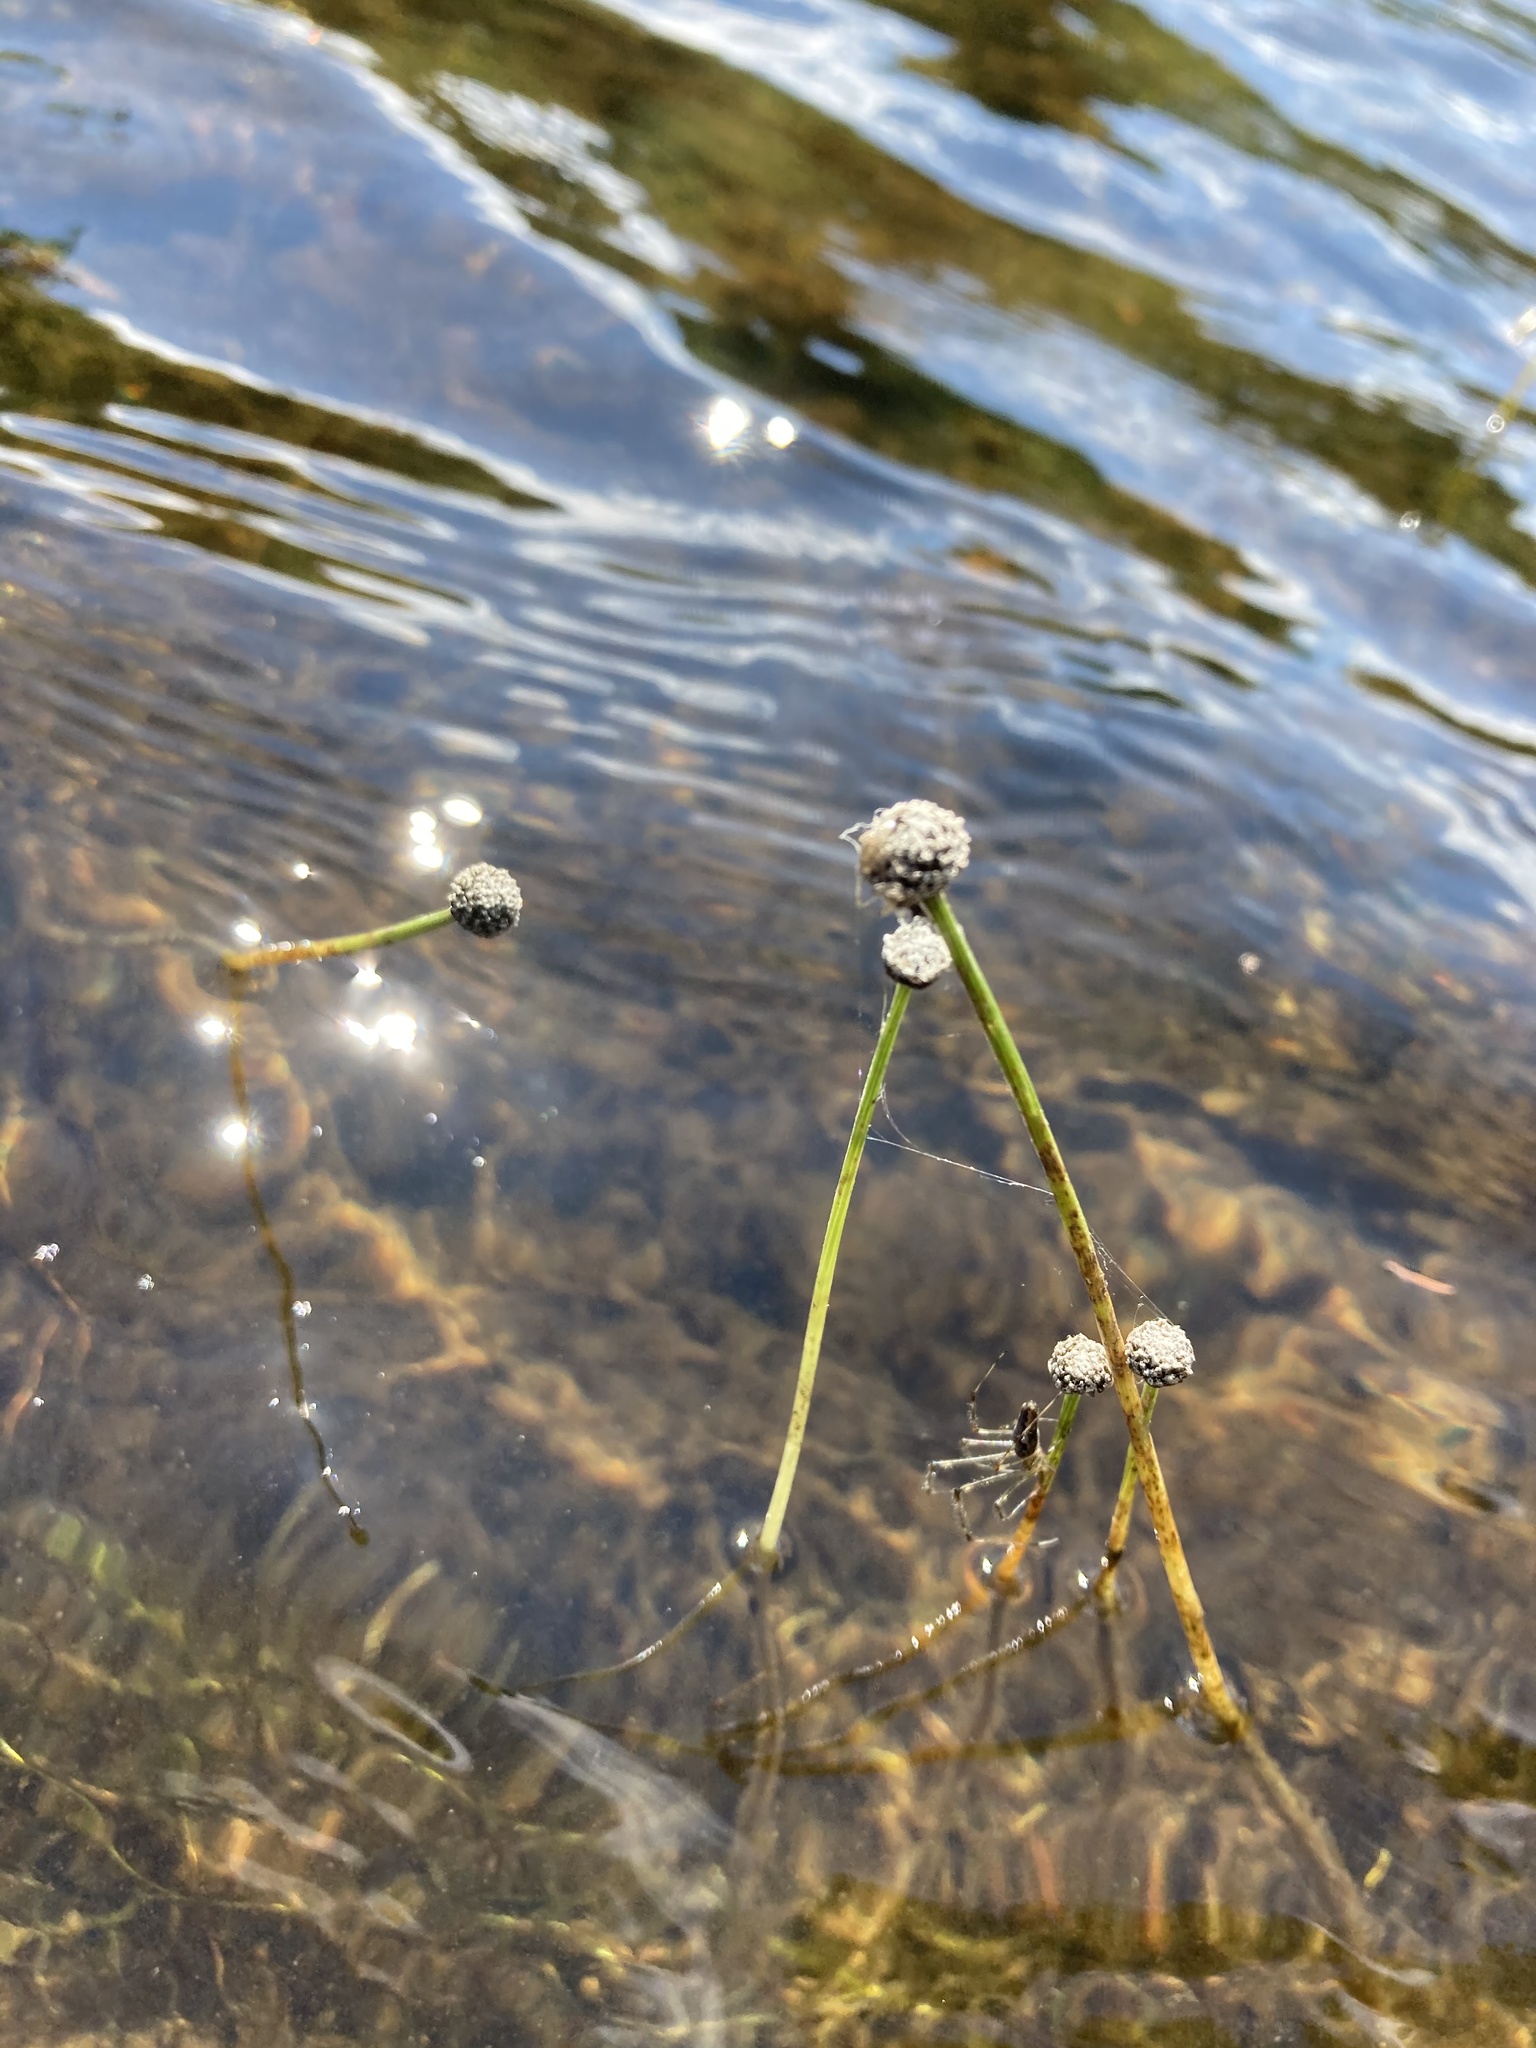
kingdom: Plantae
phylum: Tracheophyta
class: Liliopsida
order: Poales
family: Eriocaulaceae
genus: Eriocaulon
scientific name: Eriocaulon aquaticum
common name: Pipewort
